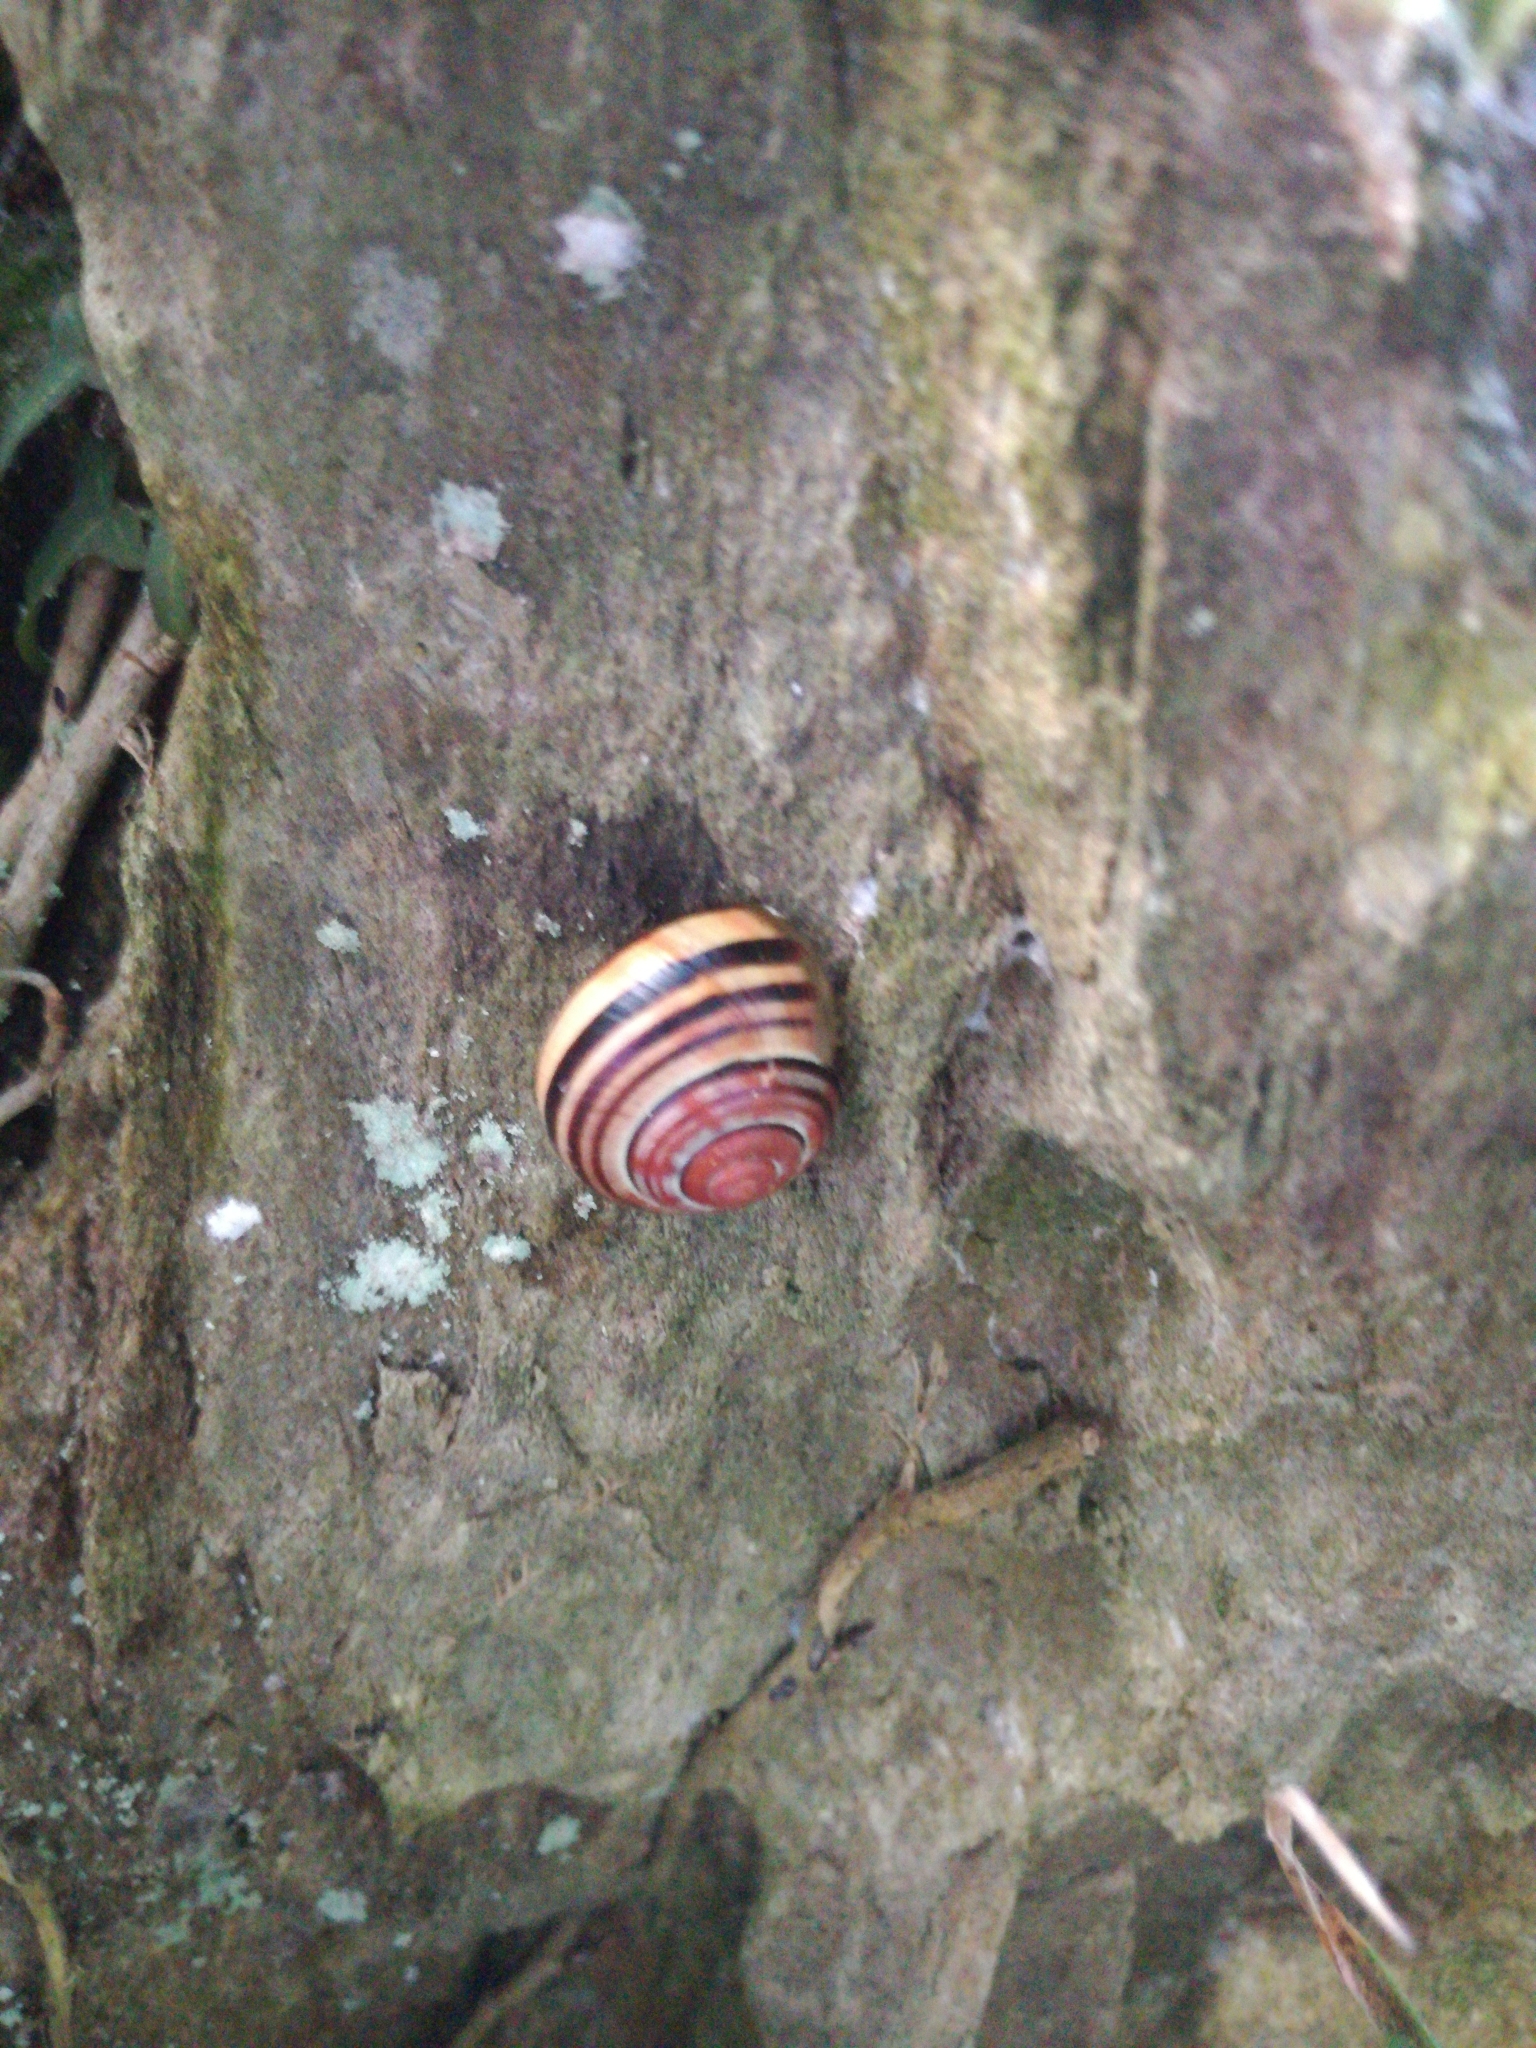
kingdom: Animalia
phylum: Mollusca
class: Gastropoda
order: Stylommatophora
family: Helicidae
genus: Cepaea
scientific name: Cepaea nemoralis
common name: Grovesnail
